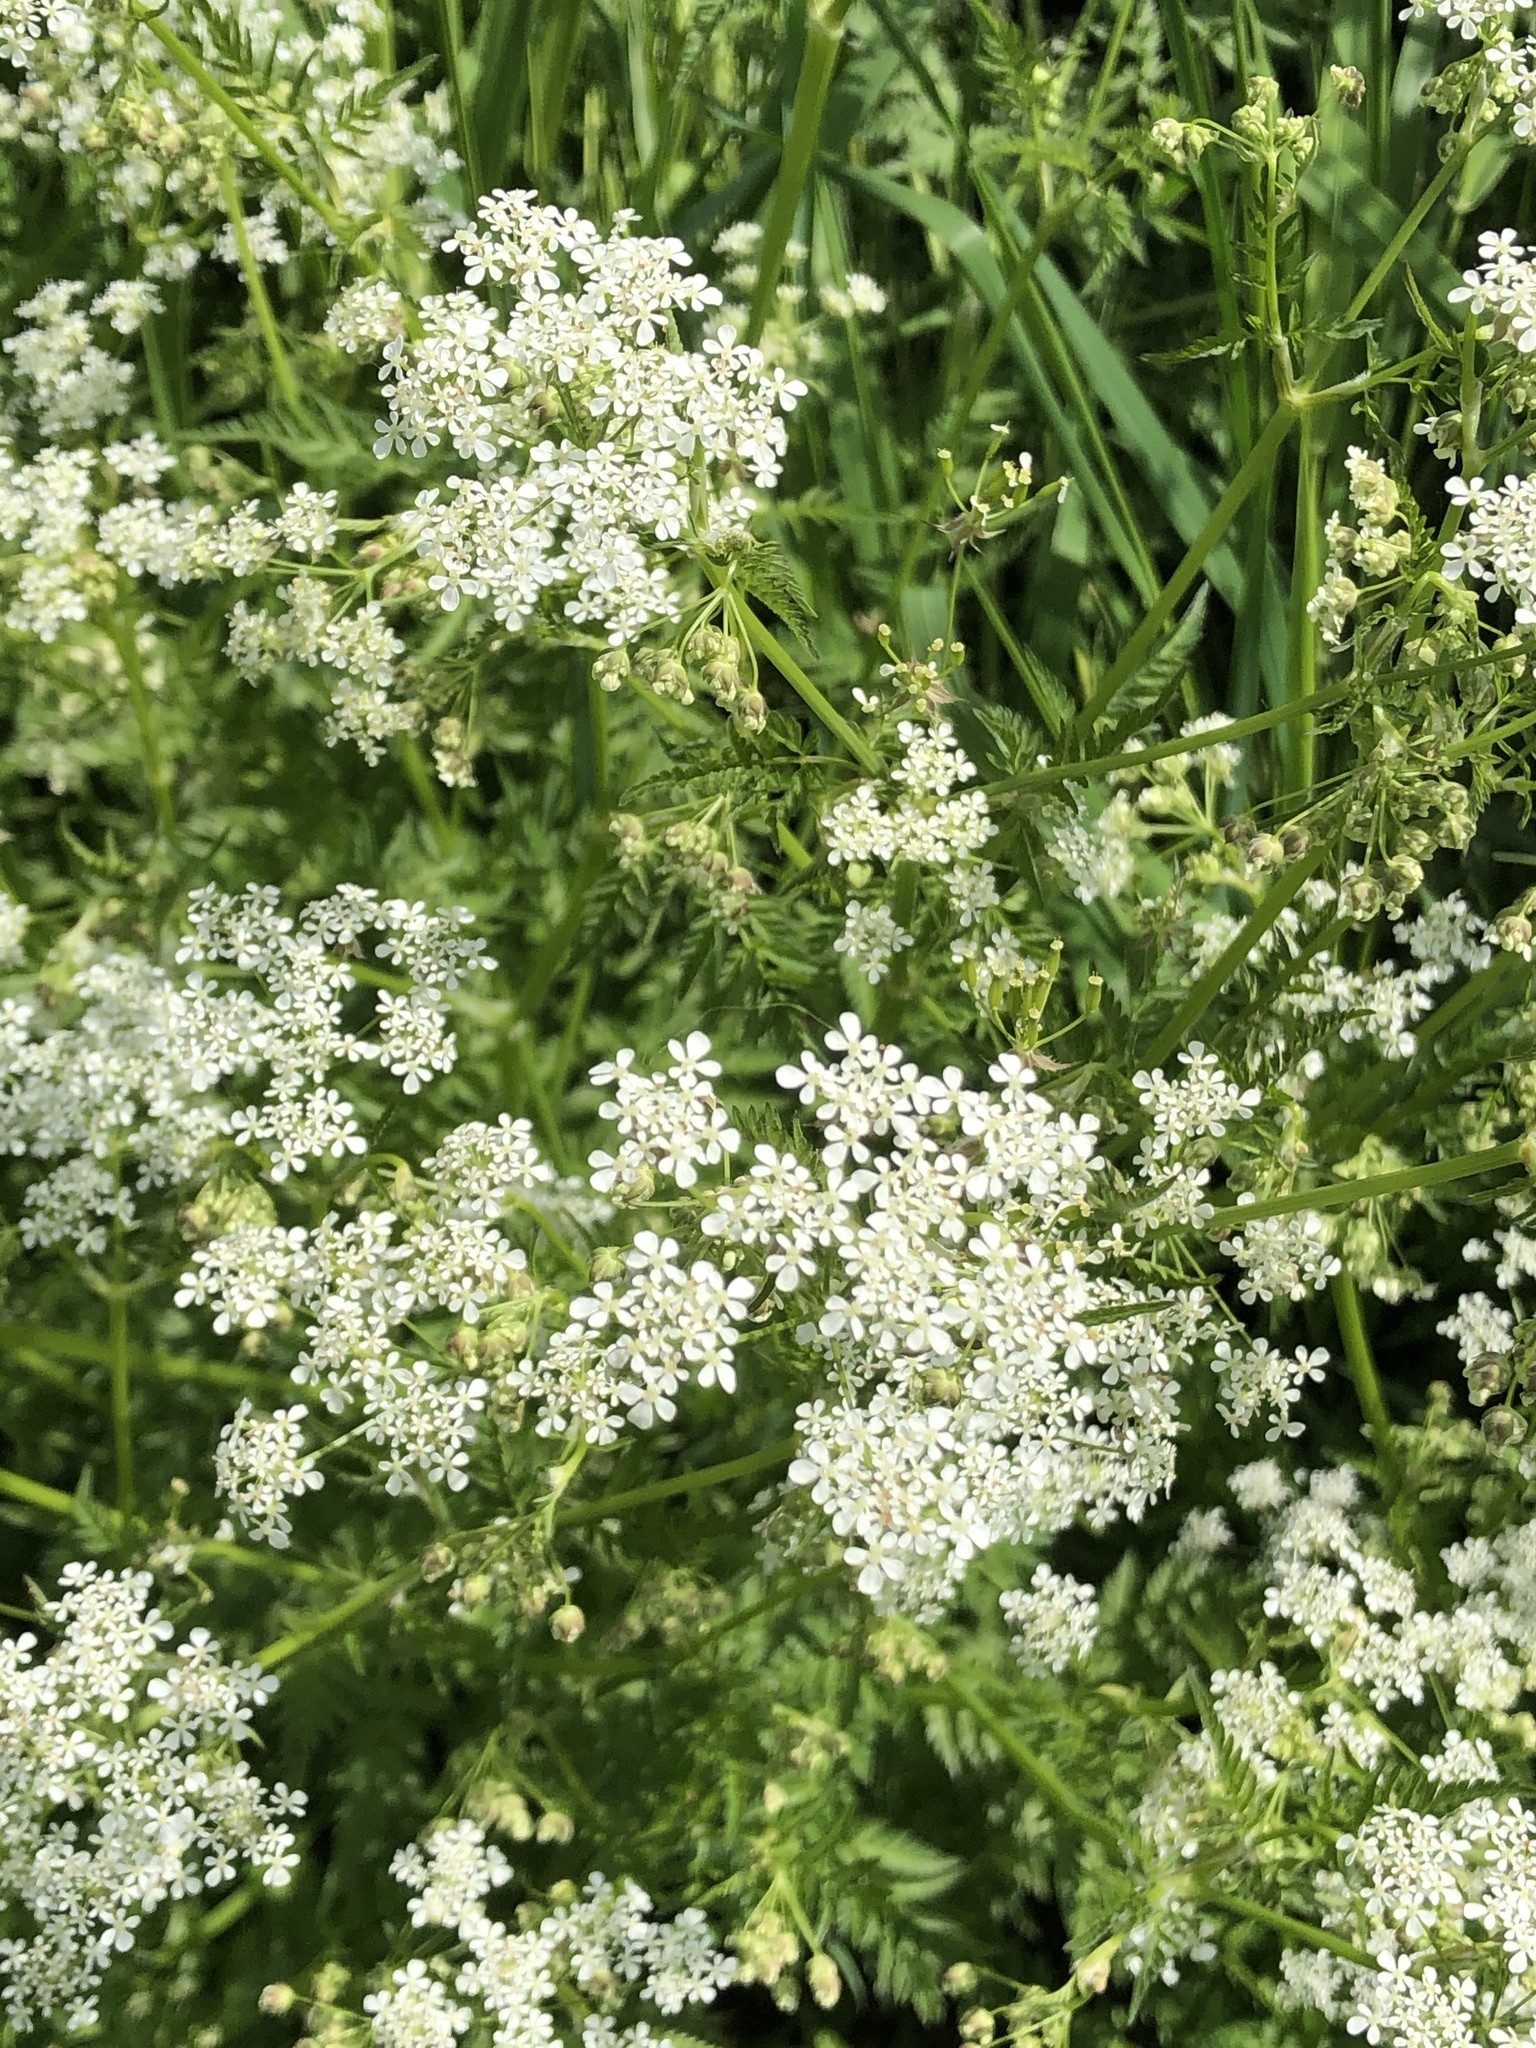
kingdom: Plantae
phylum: Tracheophyta
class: Magnoliopsida
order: Apiales
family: Apiaceae
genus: Anthriscus
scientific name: Anthriscus sylvestris
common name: Cow parsley
